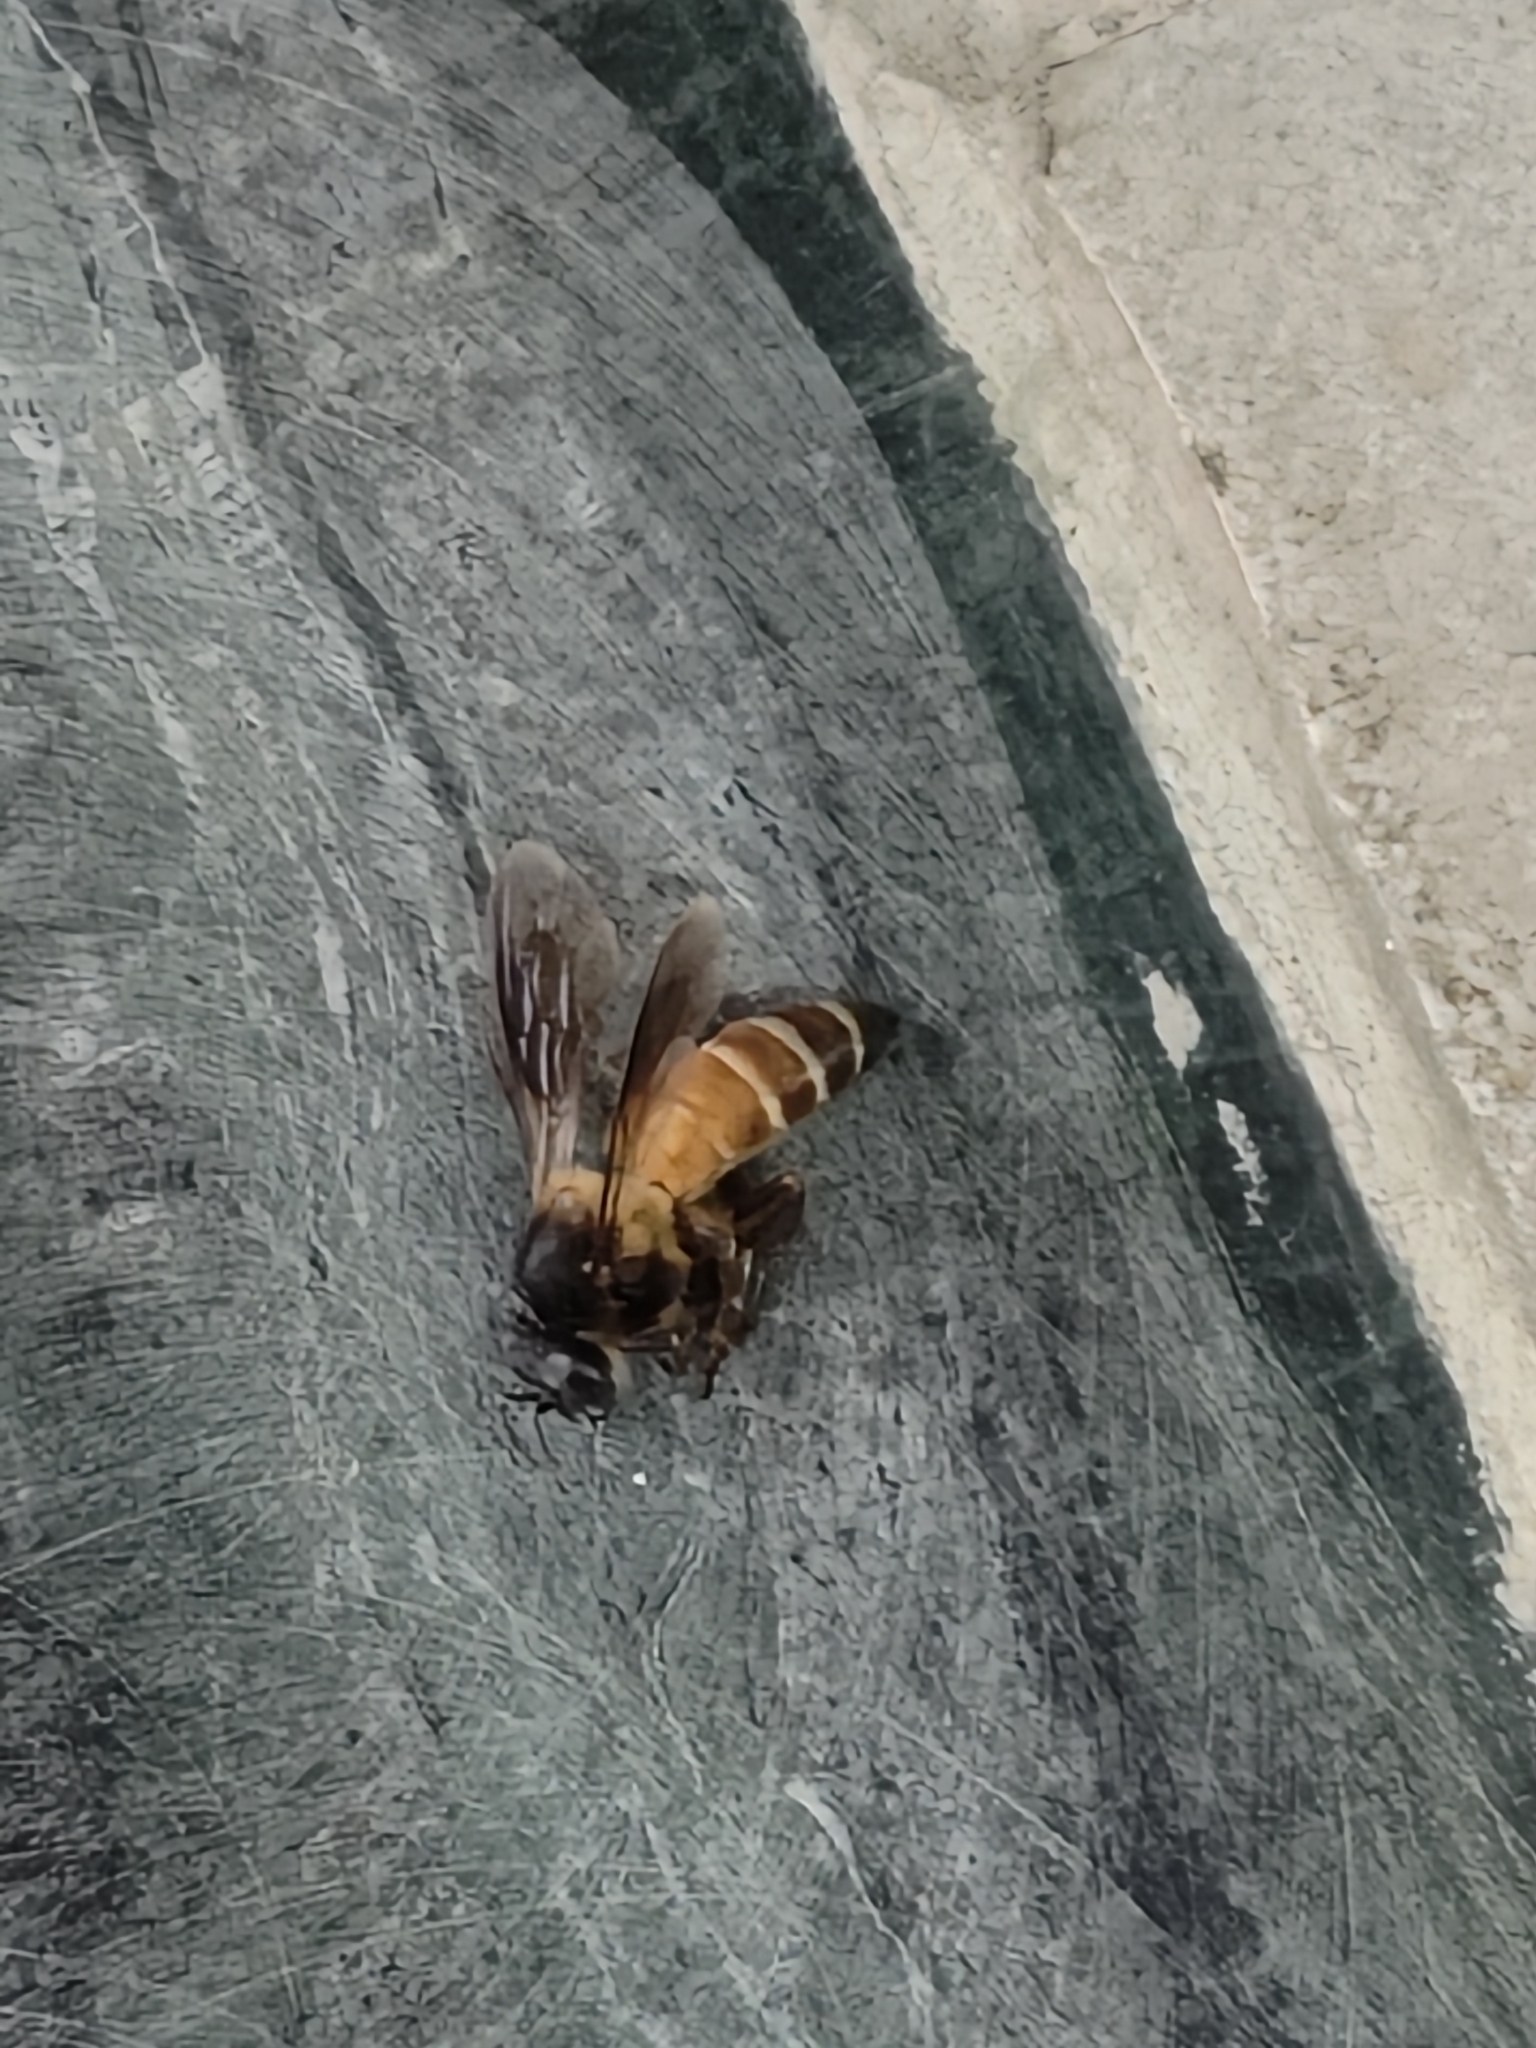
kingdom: Animalia
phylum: Arthropoda
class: Insecta
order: Hymenoptera
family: Apidae
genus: Apis
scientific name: Apis dorsata
